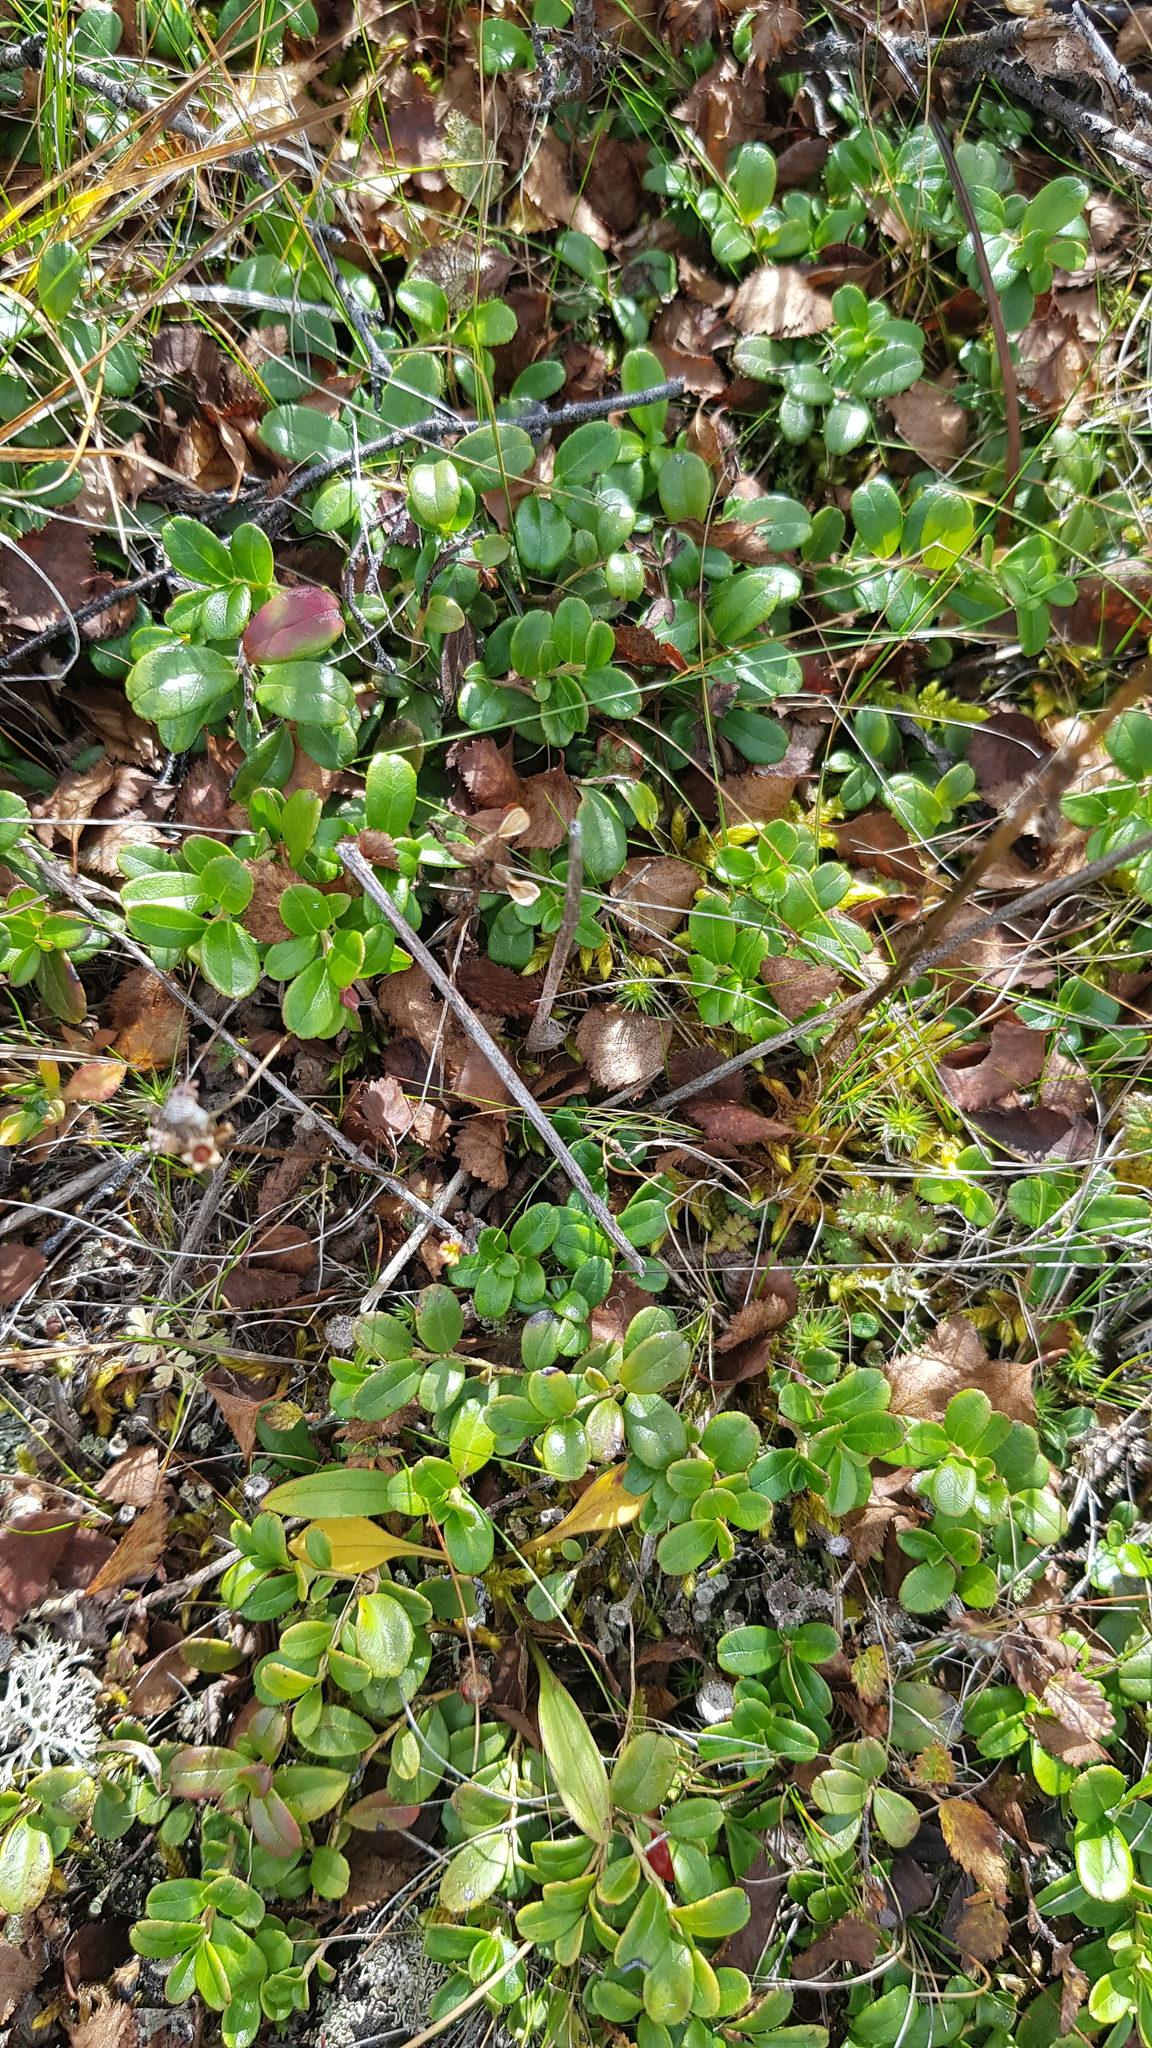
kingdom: Plantae
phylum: Tracheophyta
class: Magnoliopsida
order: Ericales
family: Ericaceae
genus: Vaccinium
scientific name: Vaccinium vitis-idaea
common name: Cowberry
